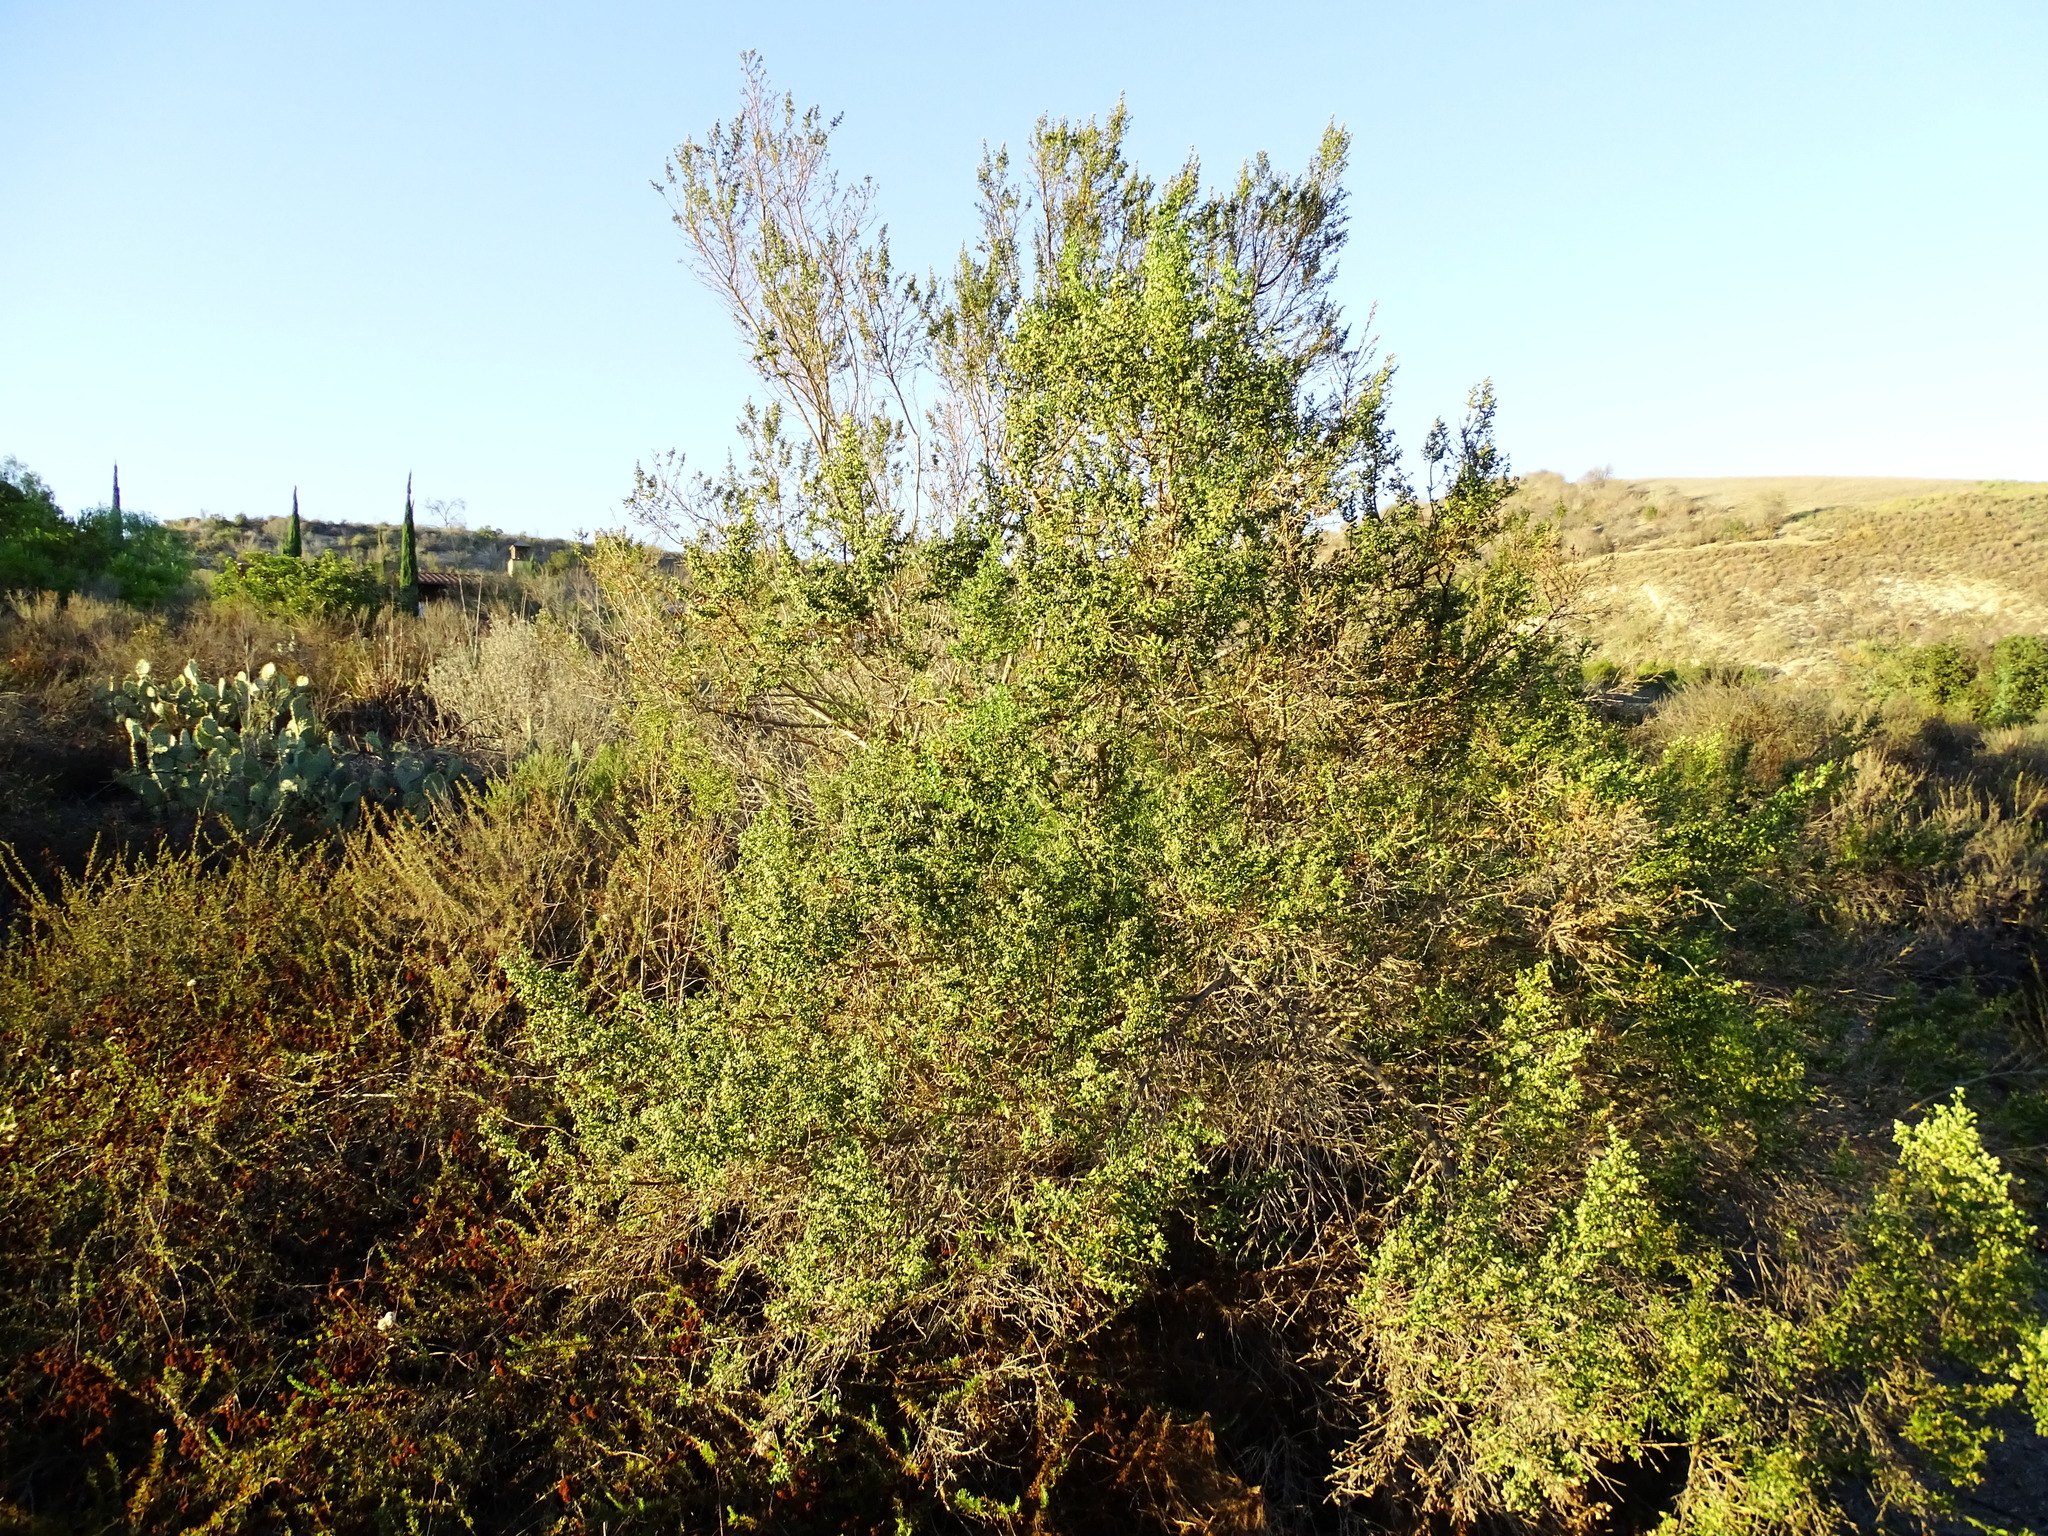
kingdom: Plantae
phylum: Tracheophyta
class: Magnoliopsida
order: Asterales
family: Asteraceae
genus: Baccharis
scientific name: Baccharis pilularis
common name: Coyotebrush
